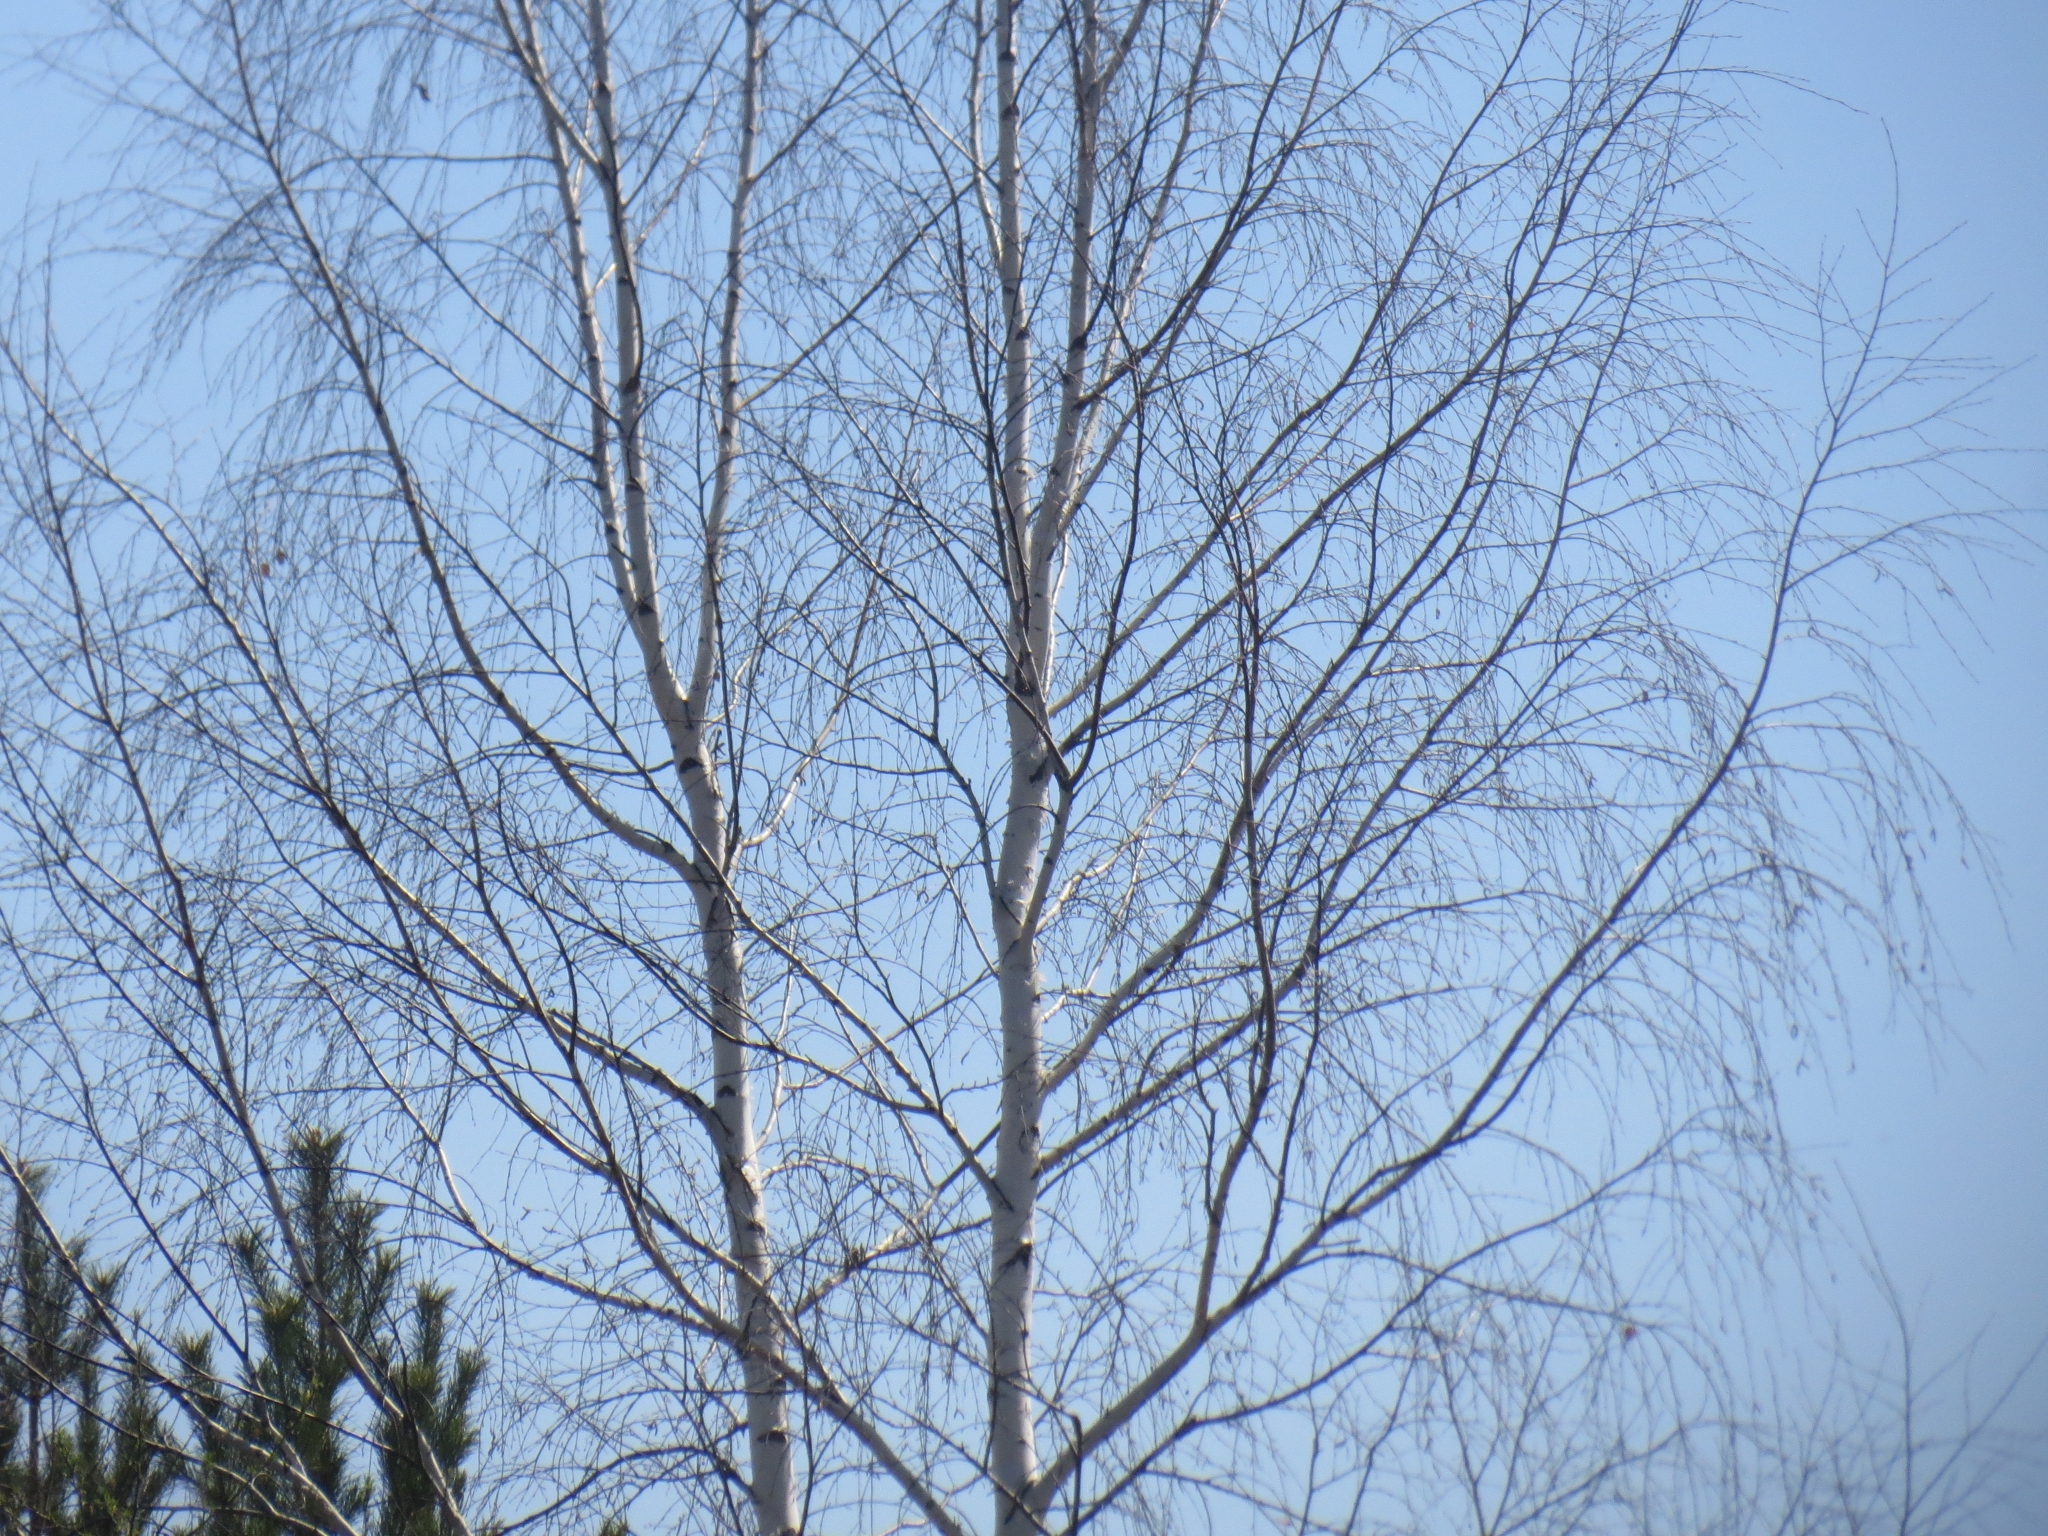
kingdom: Plantae
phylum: Tracheophyta
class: Magnoliopsida
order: Fagales
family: Betulaceae
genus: Betula
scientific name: Betula pendula
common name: Silver birch
